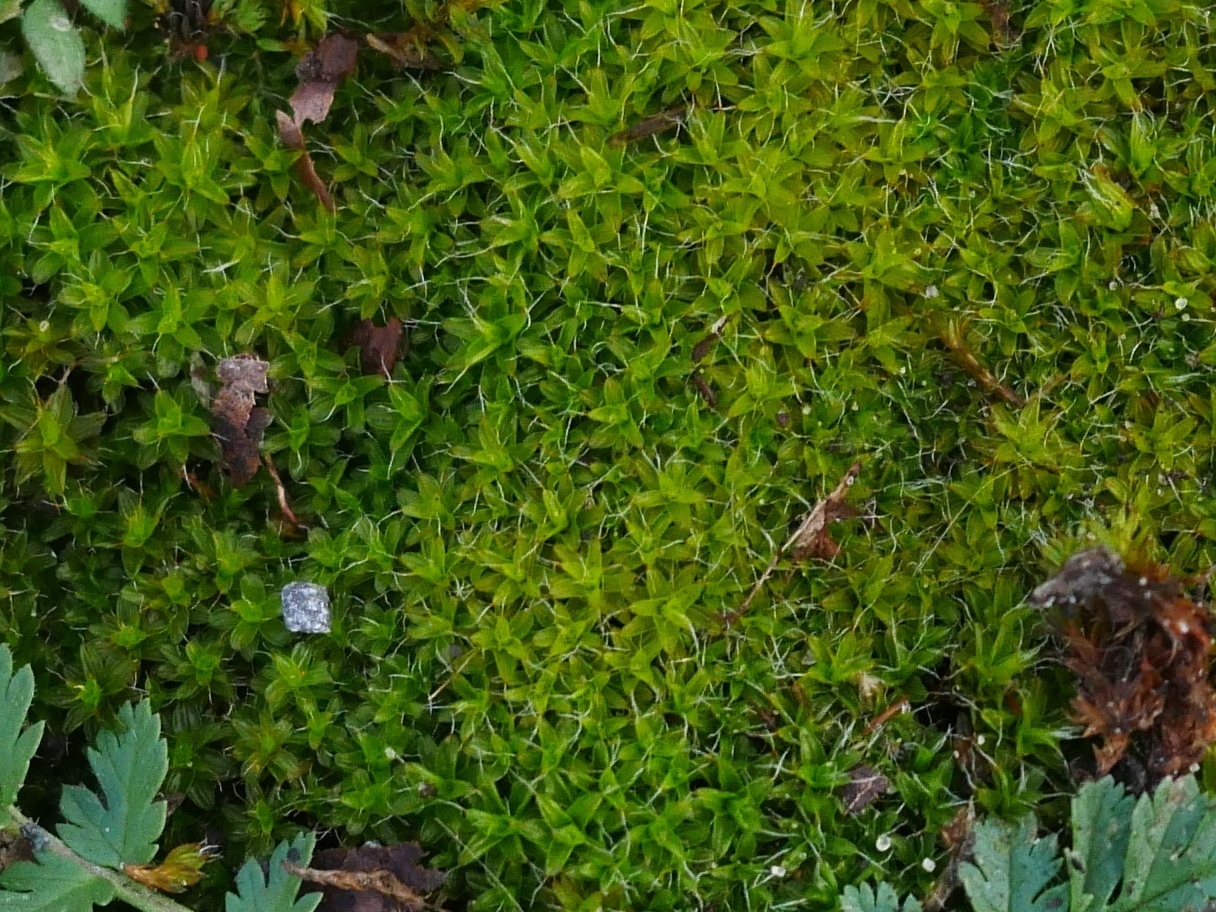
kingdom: Plantae
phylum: Bryophyta
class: Bryopsida
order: Pottiales
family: Pottiaceae
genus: Syntrichia
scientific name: Syntrichia ruralis
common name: Sidewalk screw moss
